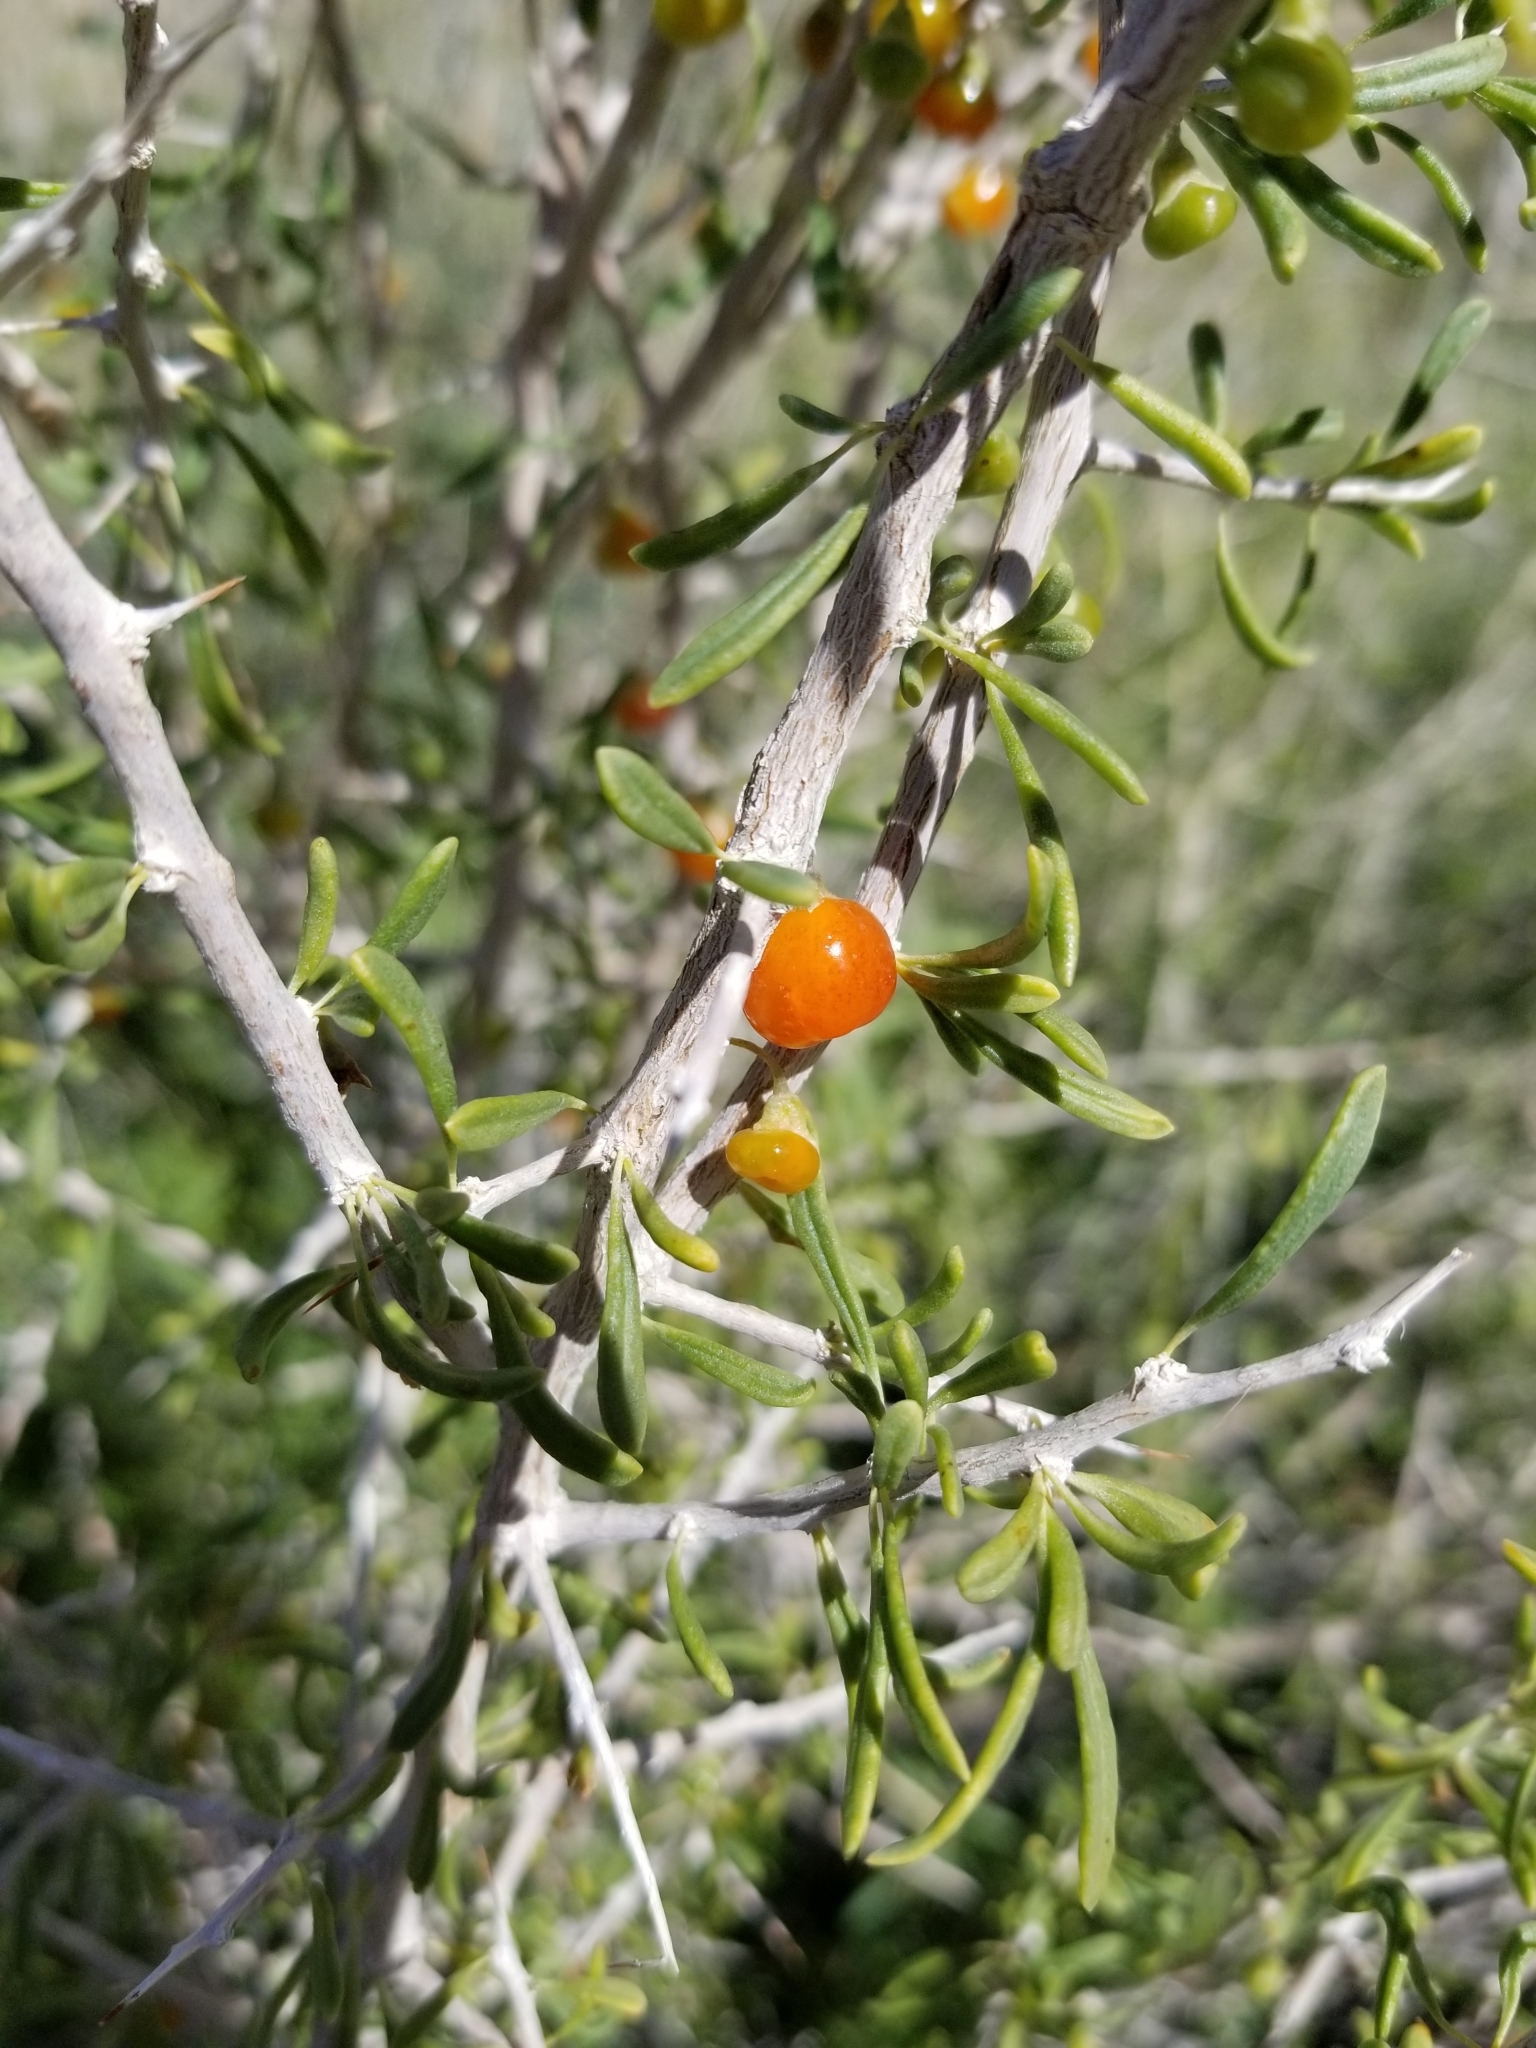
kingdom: Plantae
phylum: Tracheophyta
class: Magnoliopsida
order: Solanales
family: Solanaceae
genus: Lycium
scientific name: Lycium andersonii
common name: Water-jacket
